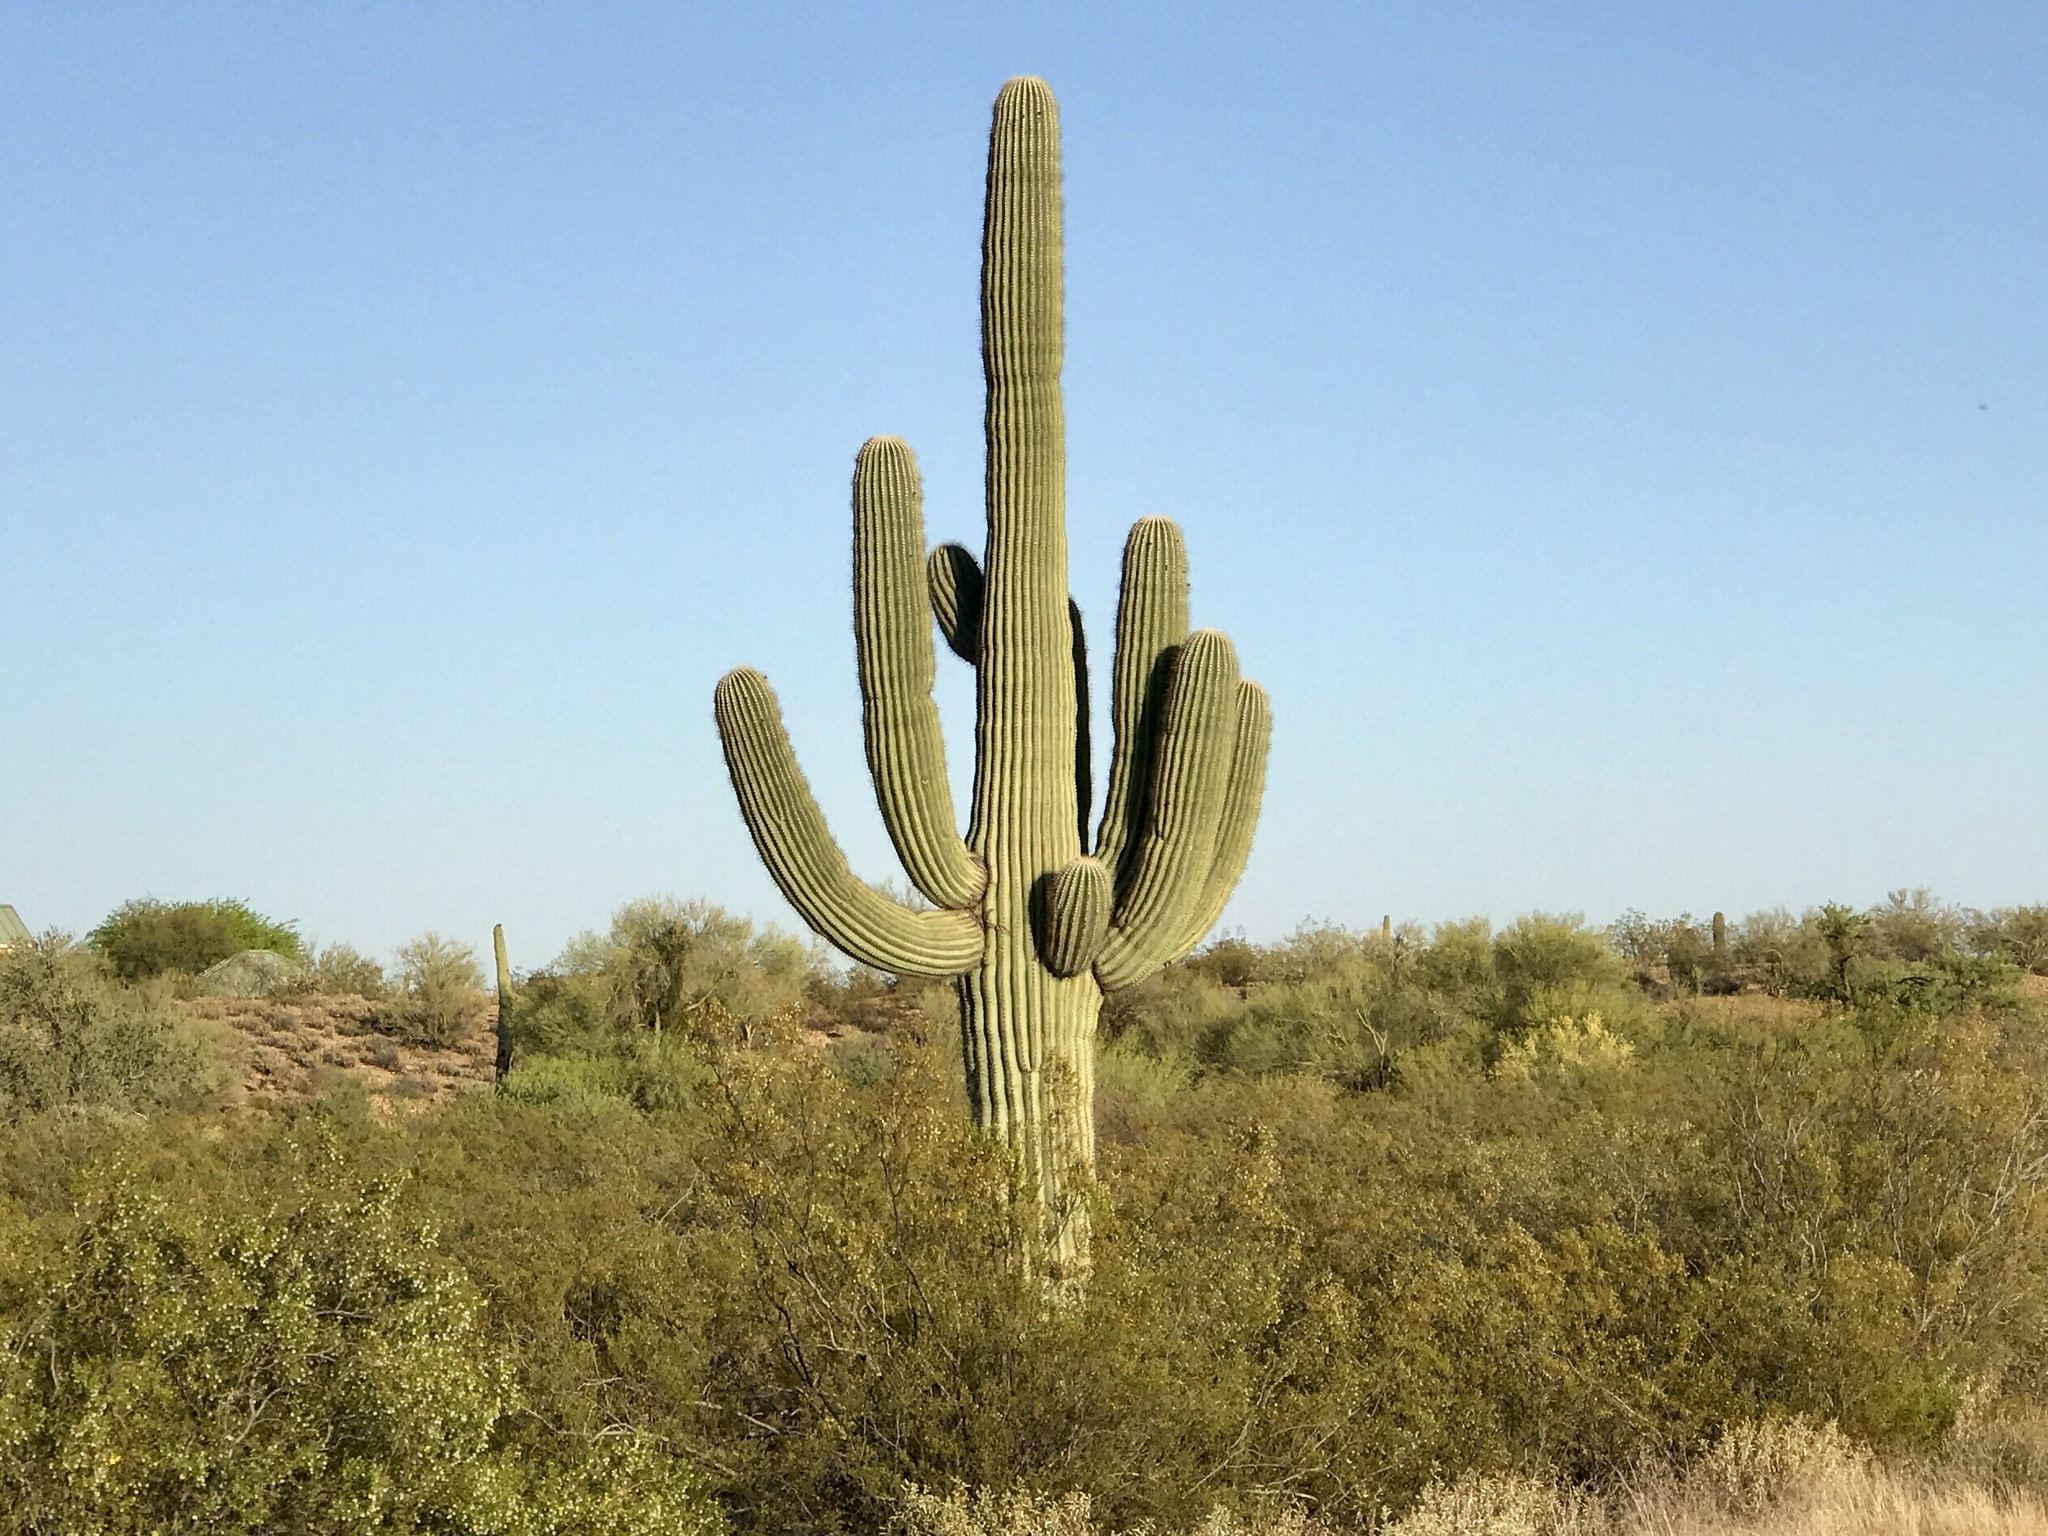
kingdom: Plantae
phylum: Tracheophyta
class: Magnoliopsida
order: Caryophyllales
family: Cactaceae
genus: Carnegiea
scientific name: Carnegiea gigantea
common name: Saguaro
